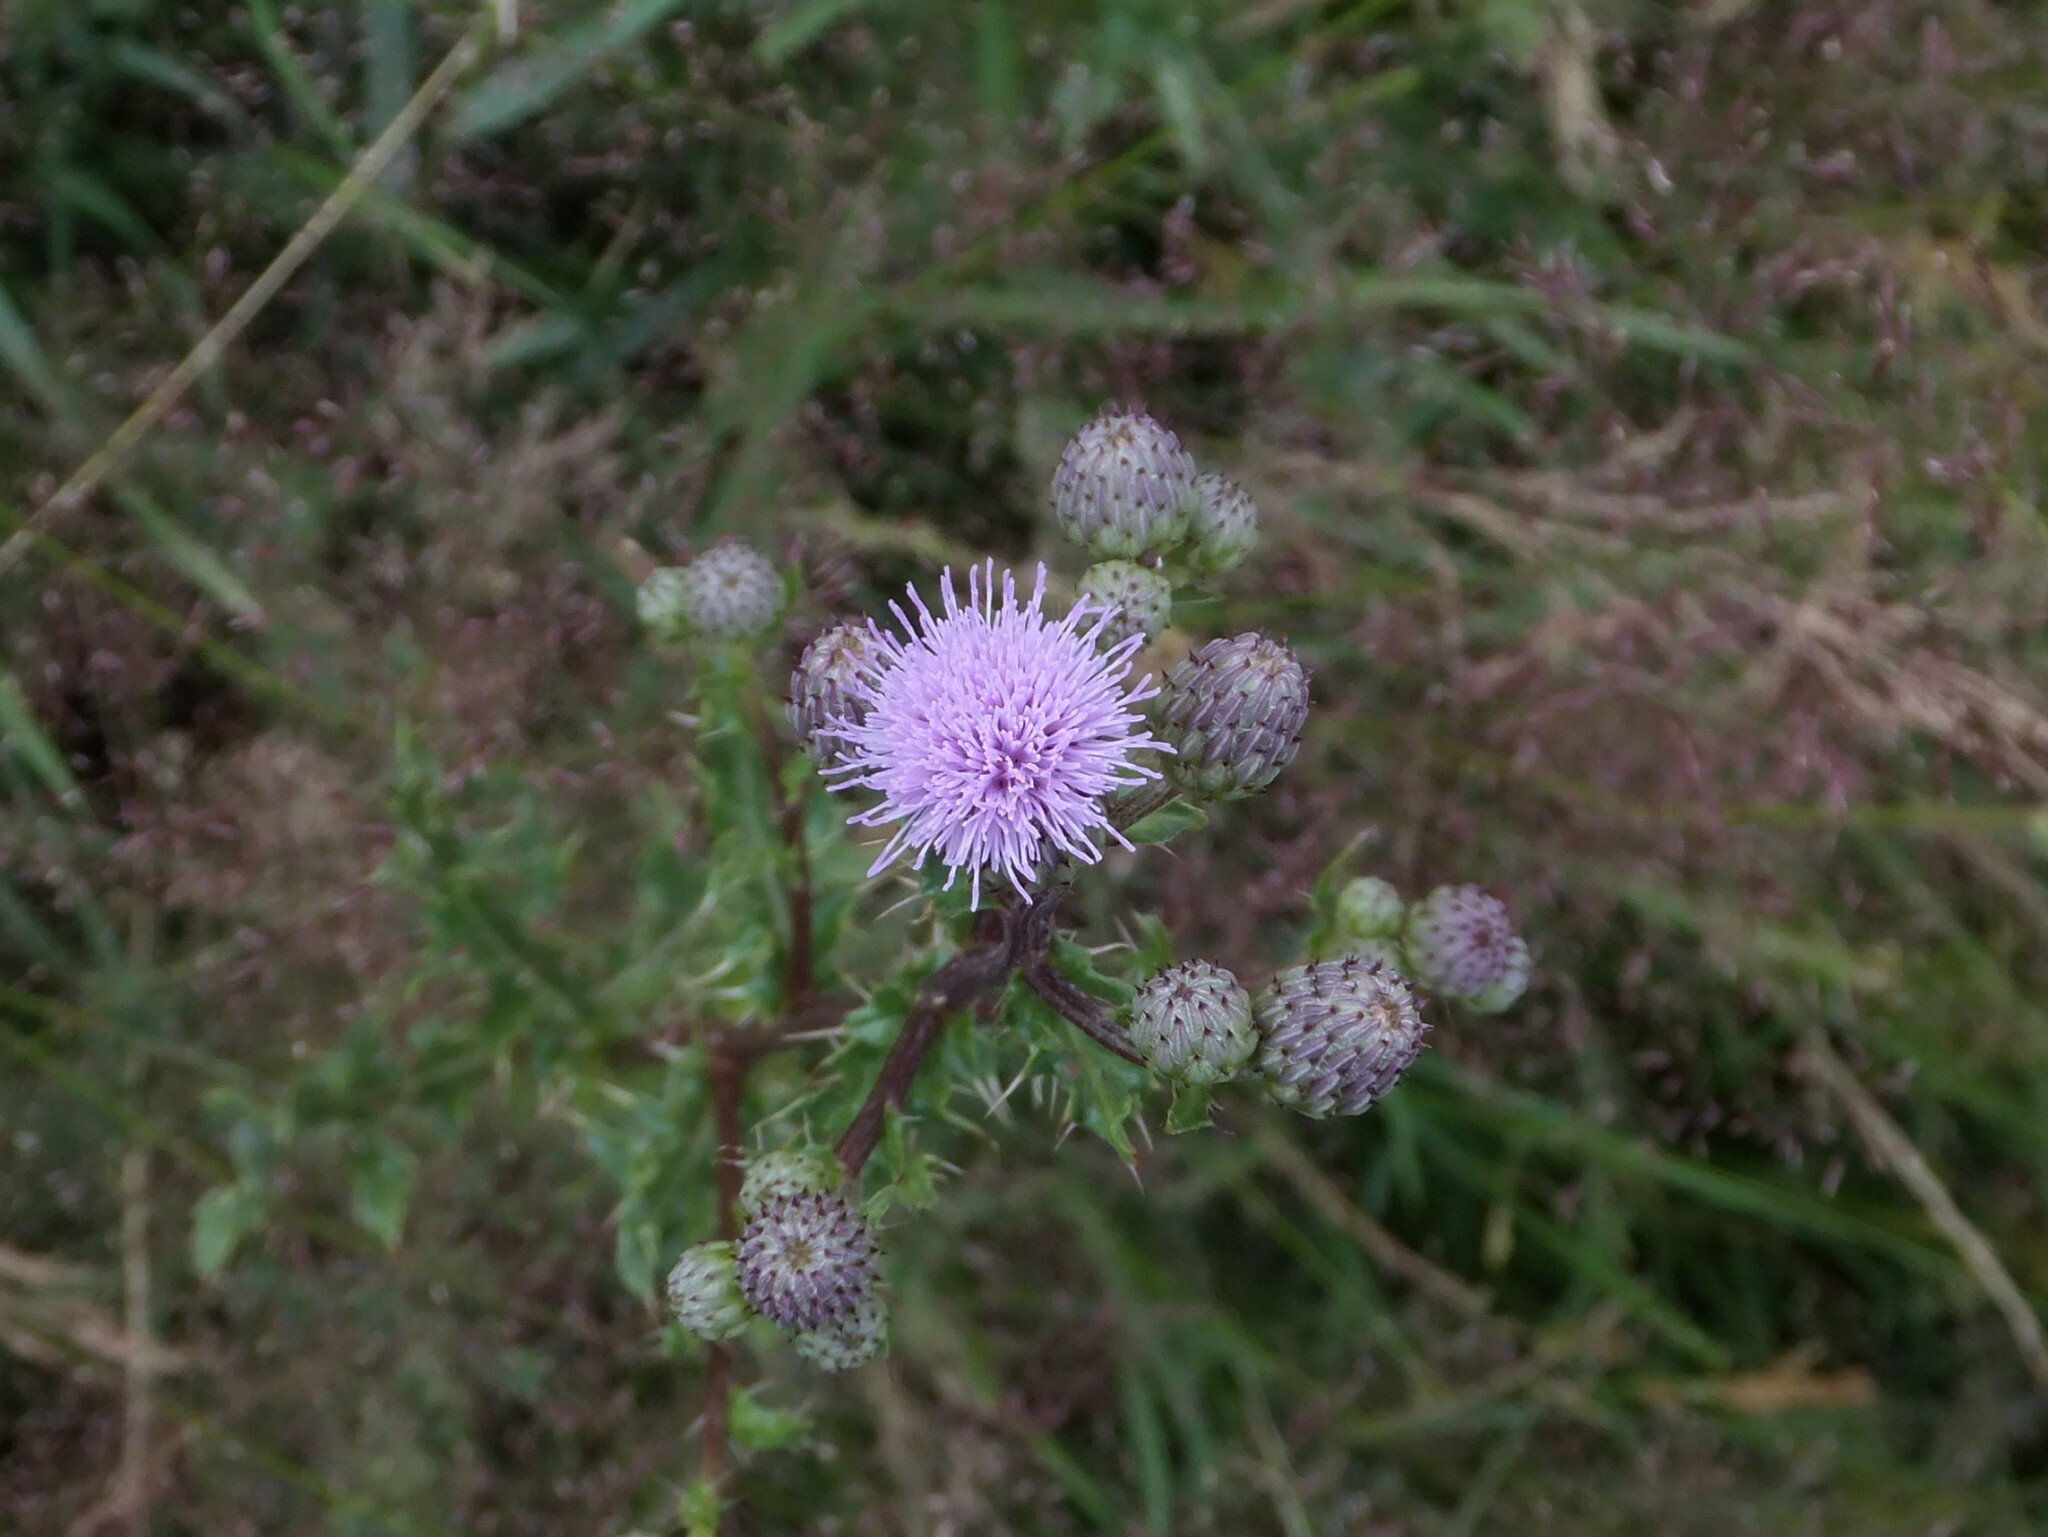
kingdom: Plantae
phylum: Tracheophyta
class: Magnoliopsida
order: Asterales
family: Asteraceae
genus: Cirsium
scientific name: Cirsium arvense
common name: Creeping thistle
